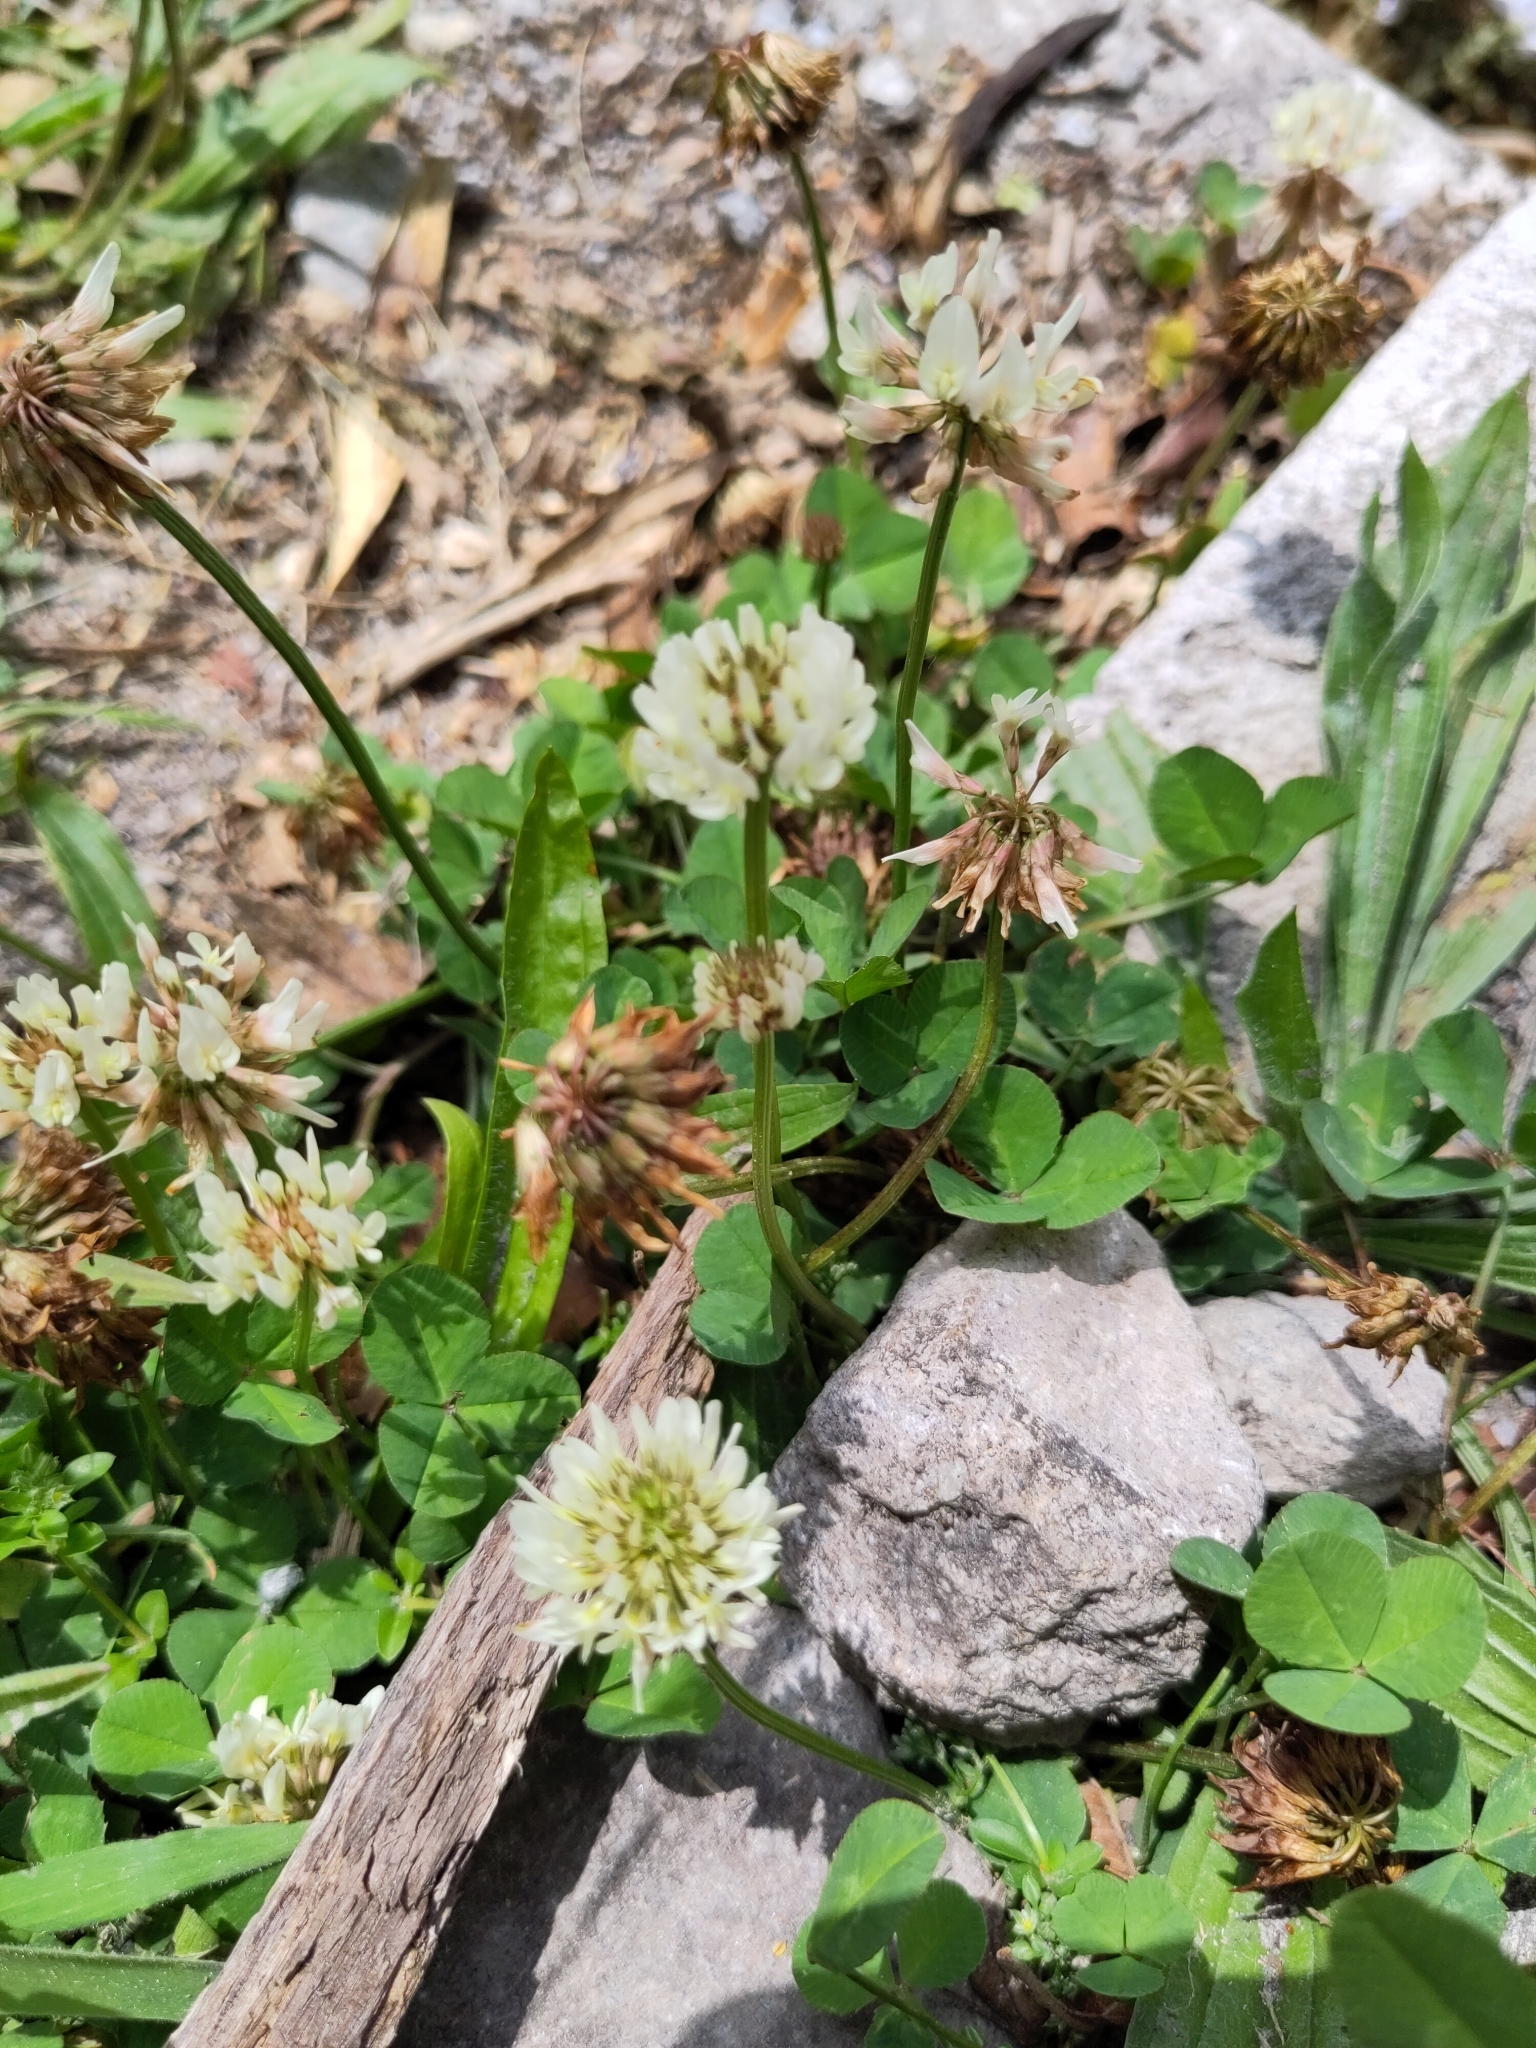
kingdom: Plantae
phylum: Tracheophyta
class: Magnoliopsida
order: Fabales
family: Fabaceae
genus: Trifolium
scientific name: Trifolium repens
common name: White clover
